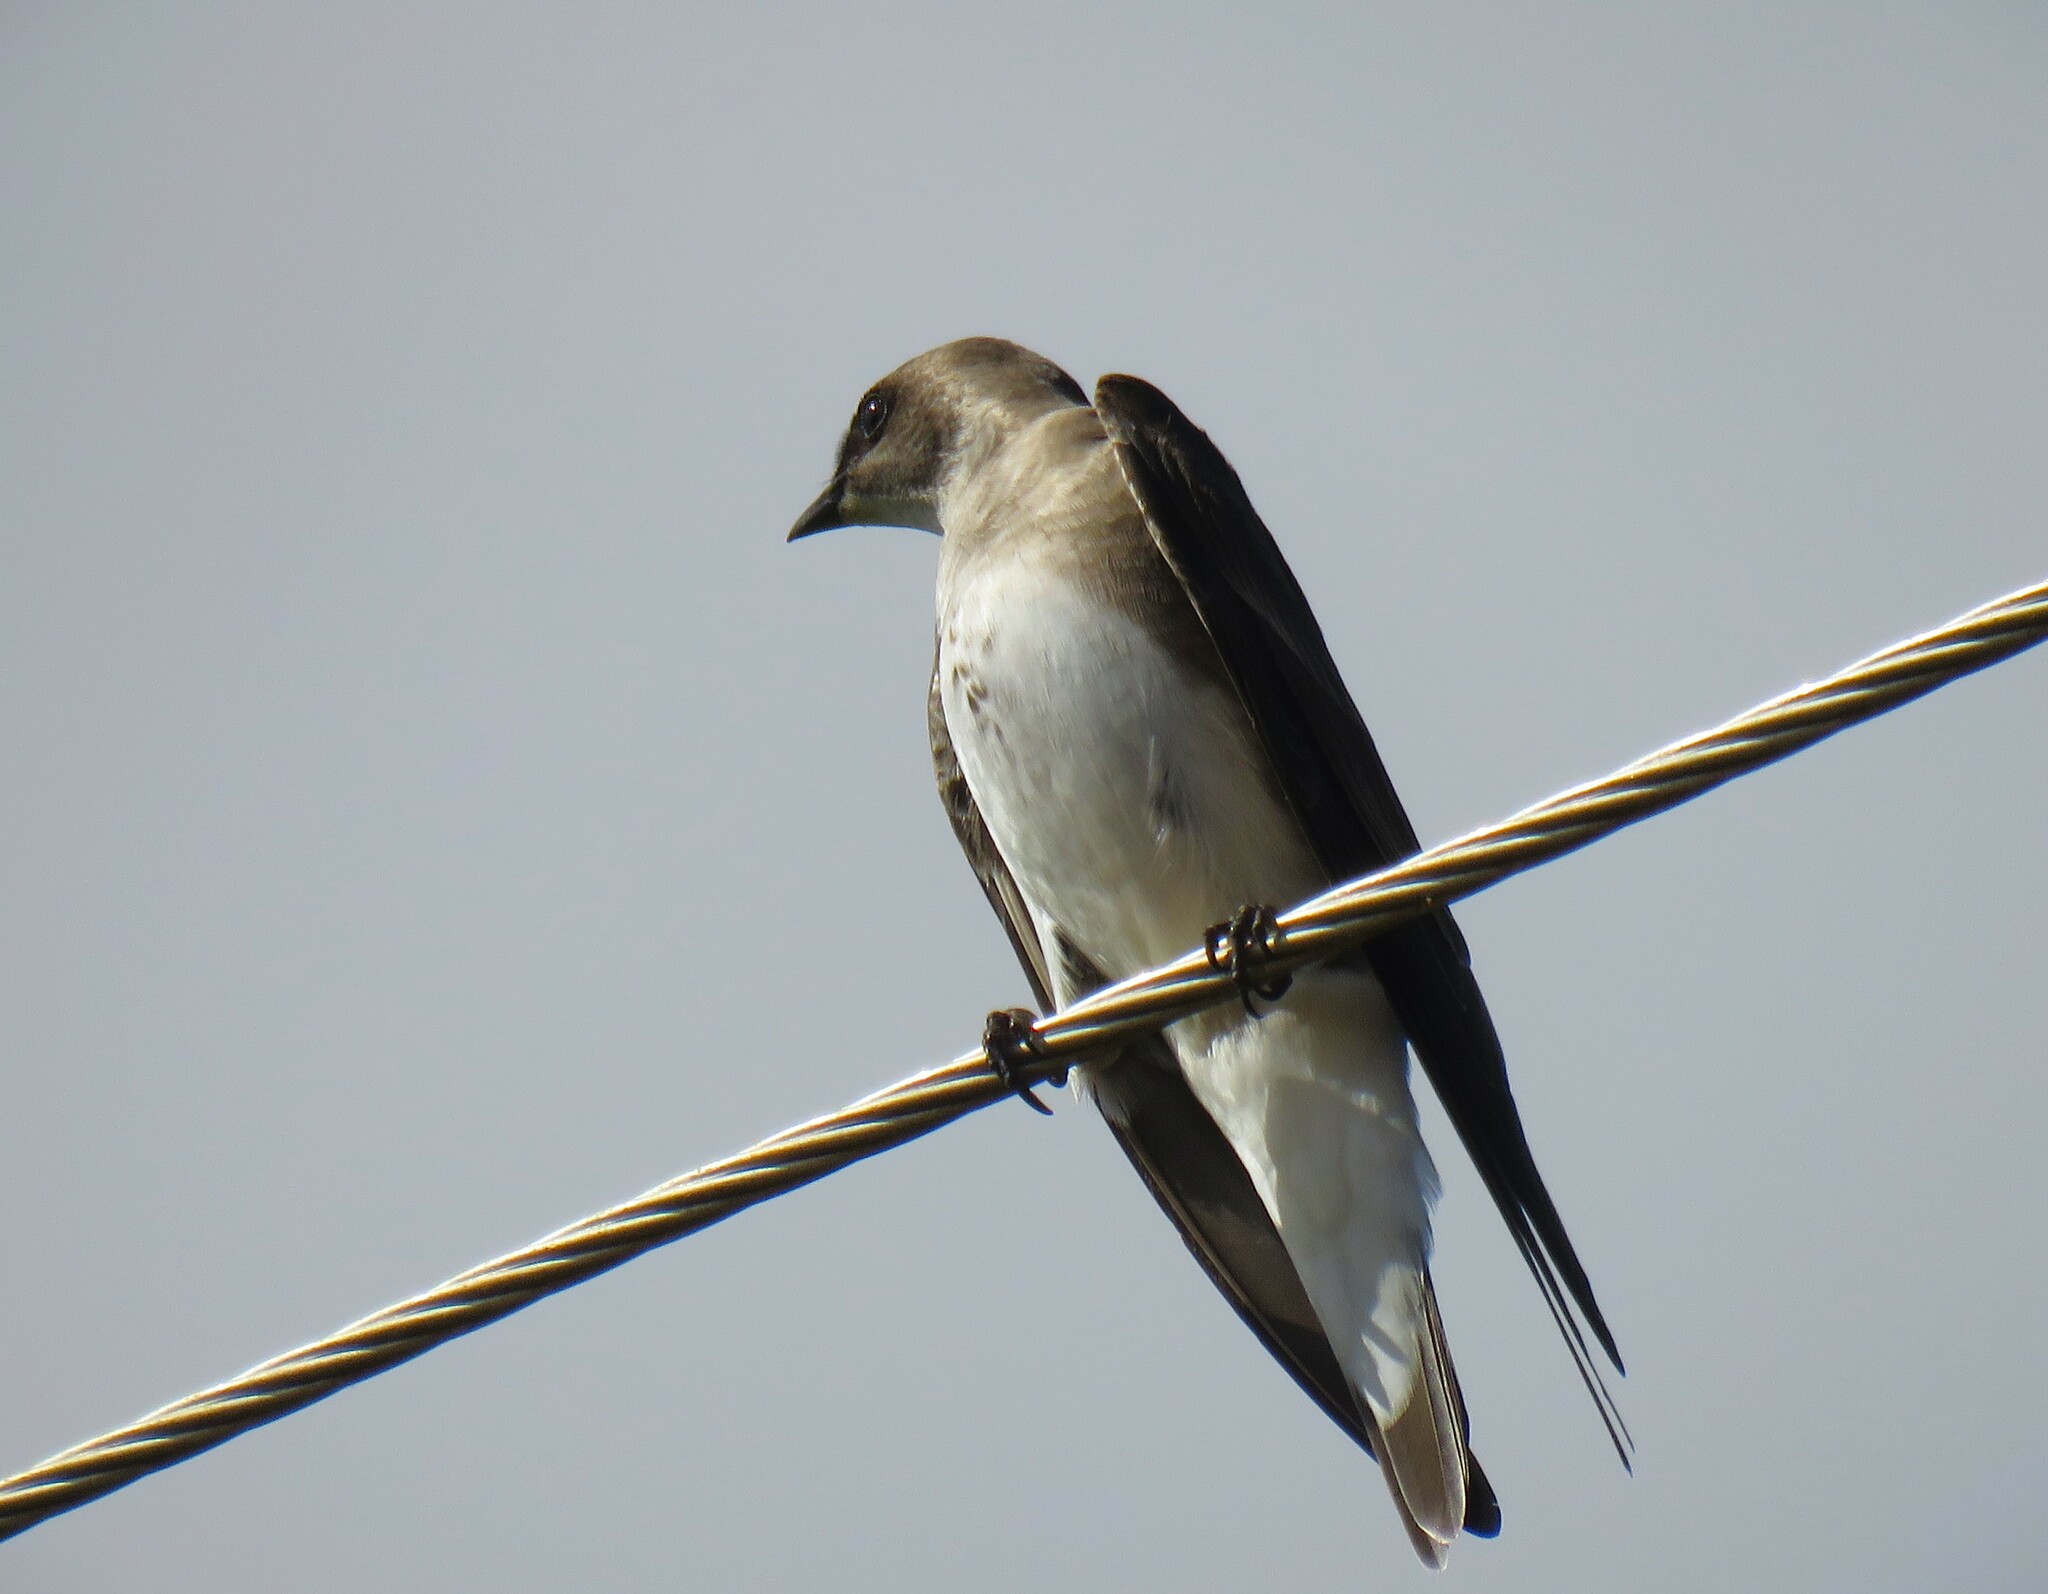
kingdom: Animalia
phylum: Chordata
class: Aves
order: Passeriformes
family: Hirundinidae
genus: Progne
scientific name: Progne tapera
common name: Brown-chested martin
